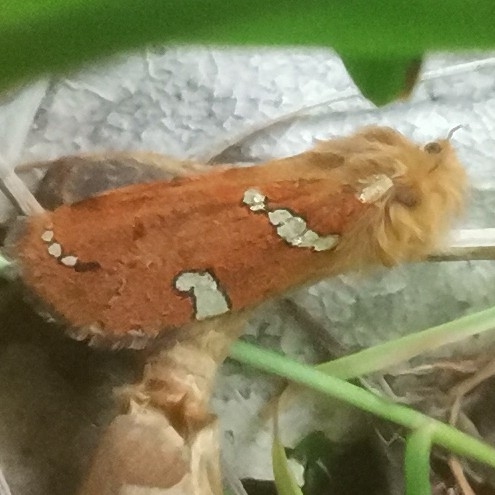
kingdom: Animalia
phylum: Arthropoda
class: Insecta
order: Lepidoptera
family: Hepialidae
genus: Phymatopus
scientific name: Phymatopus hecta
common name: Gold swift
